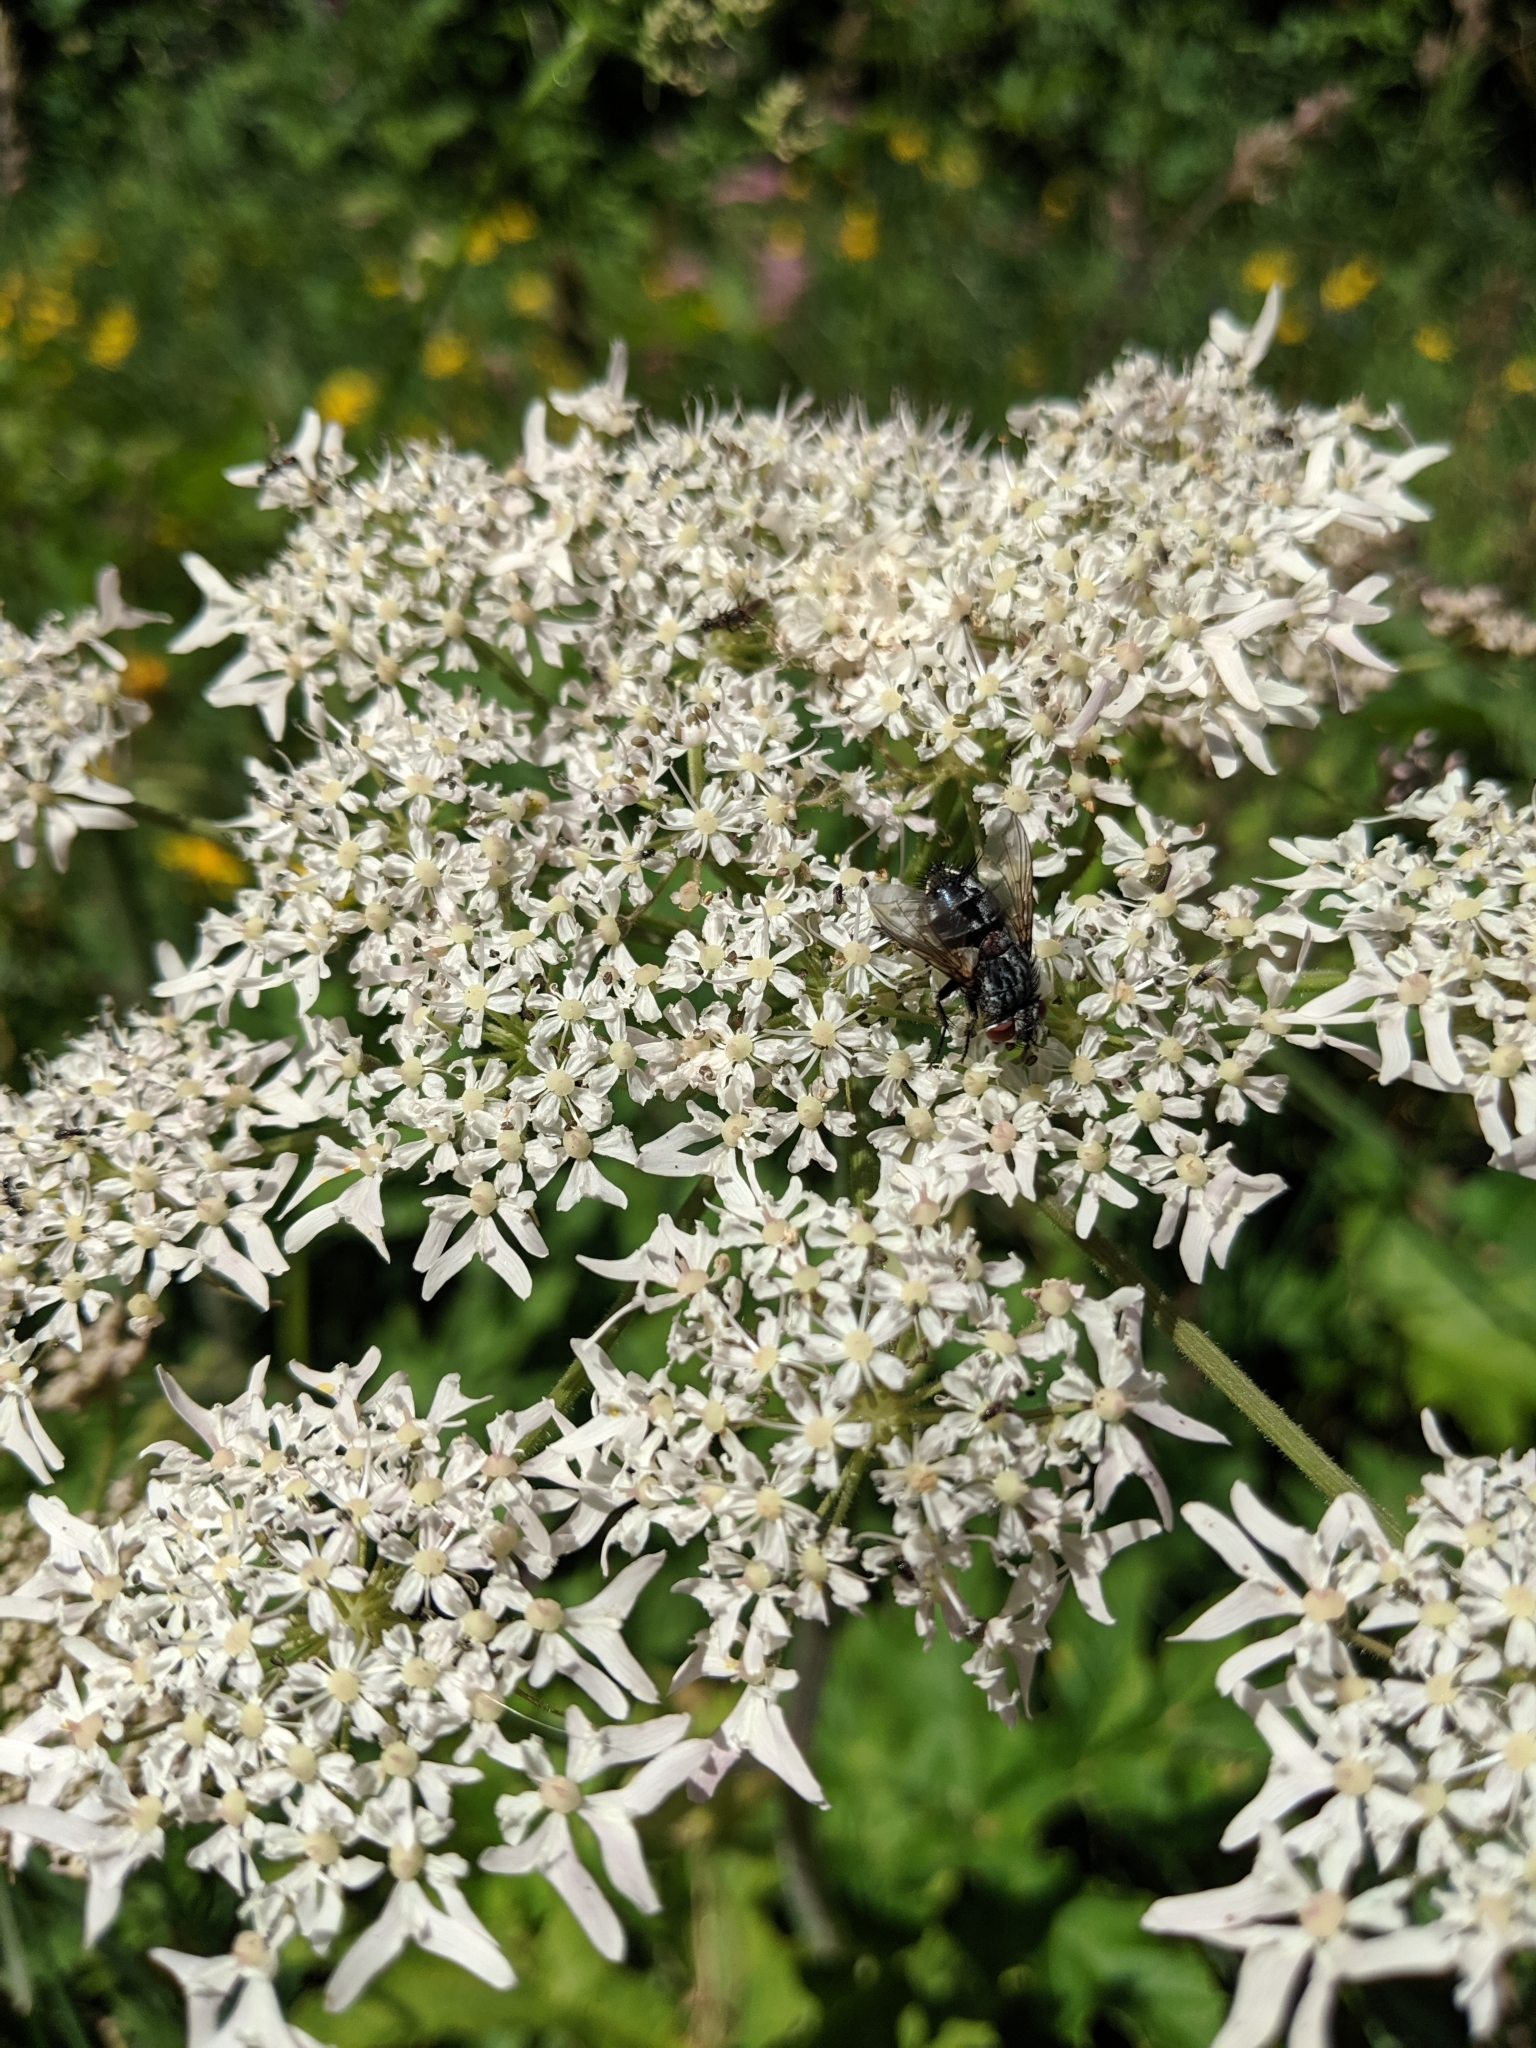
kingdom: Plantae
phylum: Tracheophyta
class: Magnoliopsida
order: Apiales
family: Apiaceae
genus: Heracleum
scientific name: Heracleum sphondylium
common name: Hogweed
